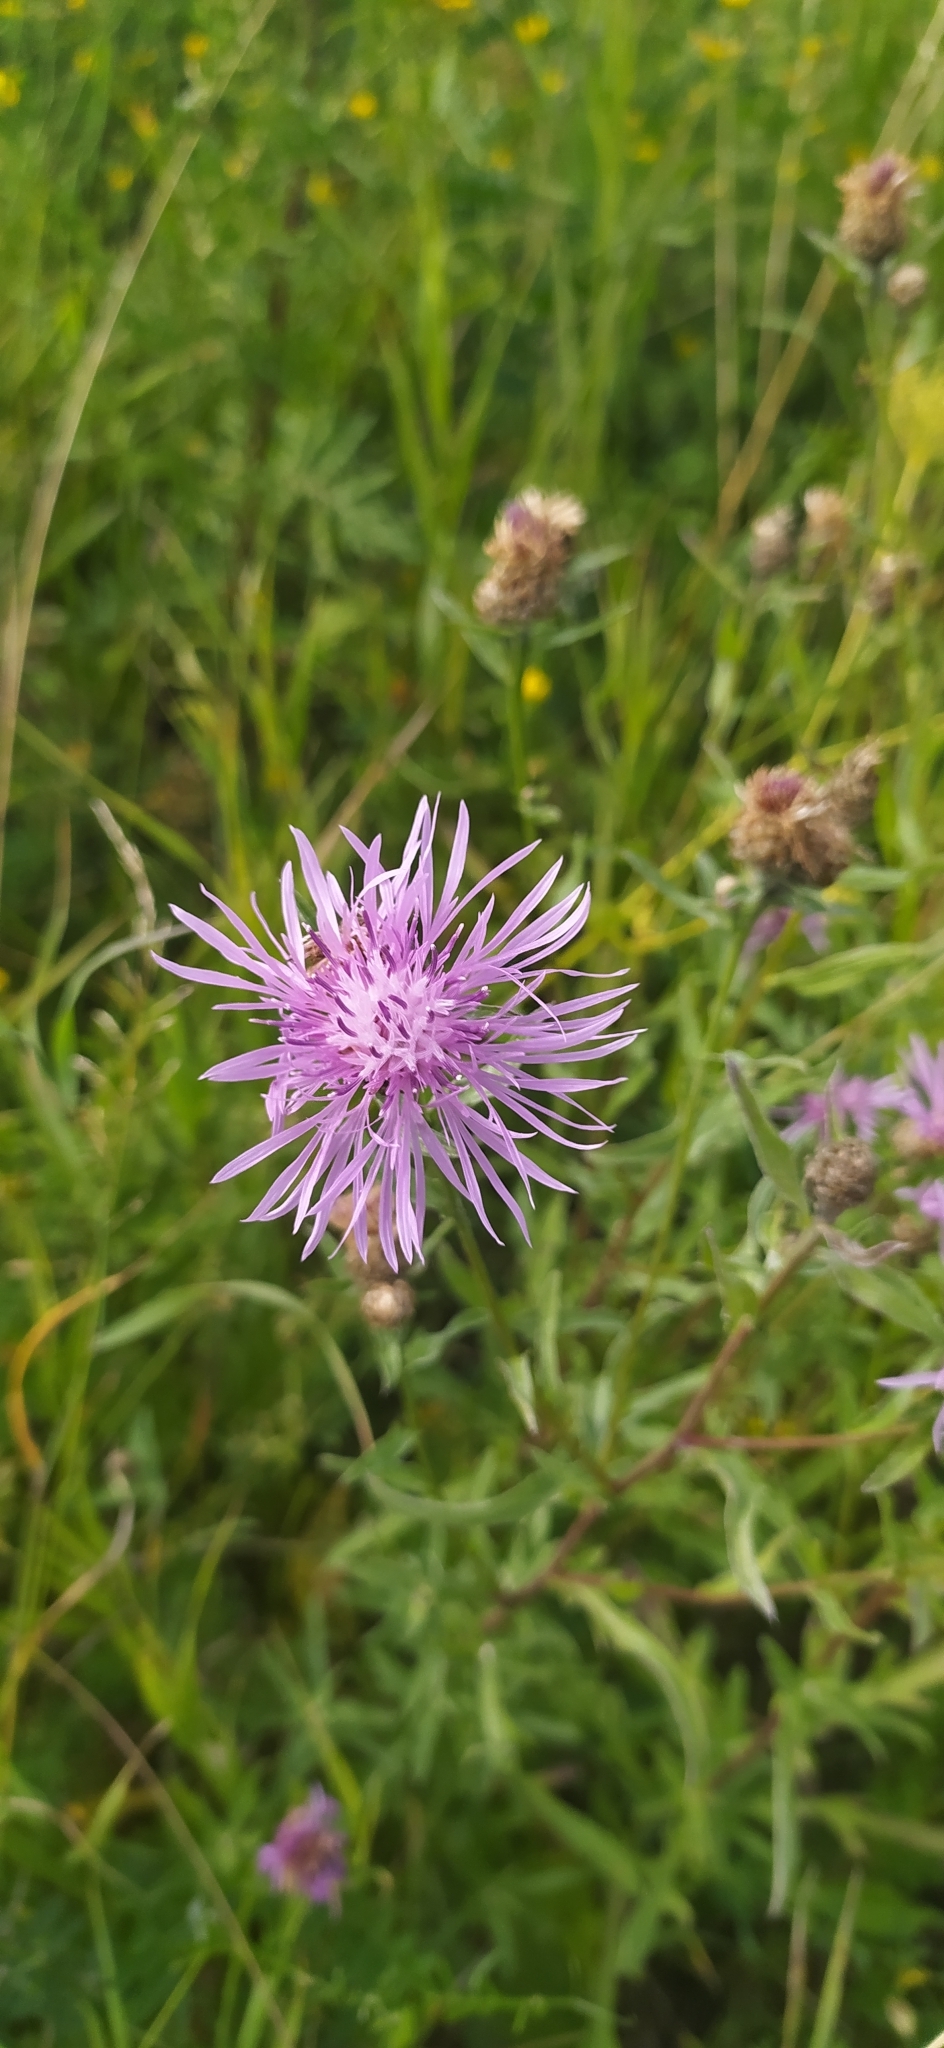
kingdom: Plantae
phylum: Tracheophyta
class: Magnoliopsida
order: Asterales
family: Asteraceae
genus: Centaurea
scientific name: Centaurea jacea
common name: Brown knapweed
